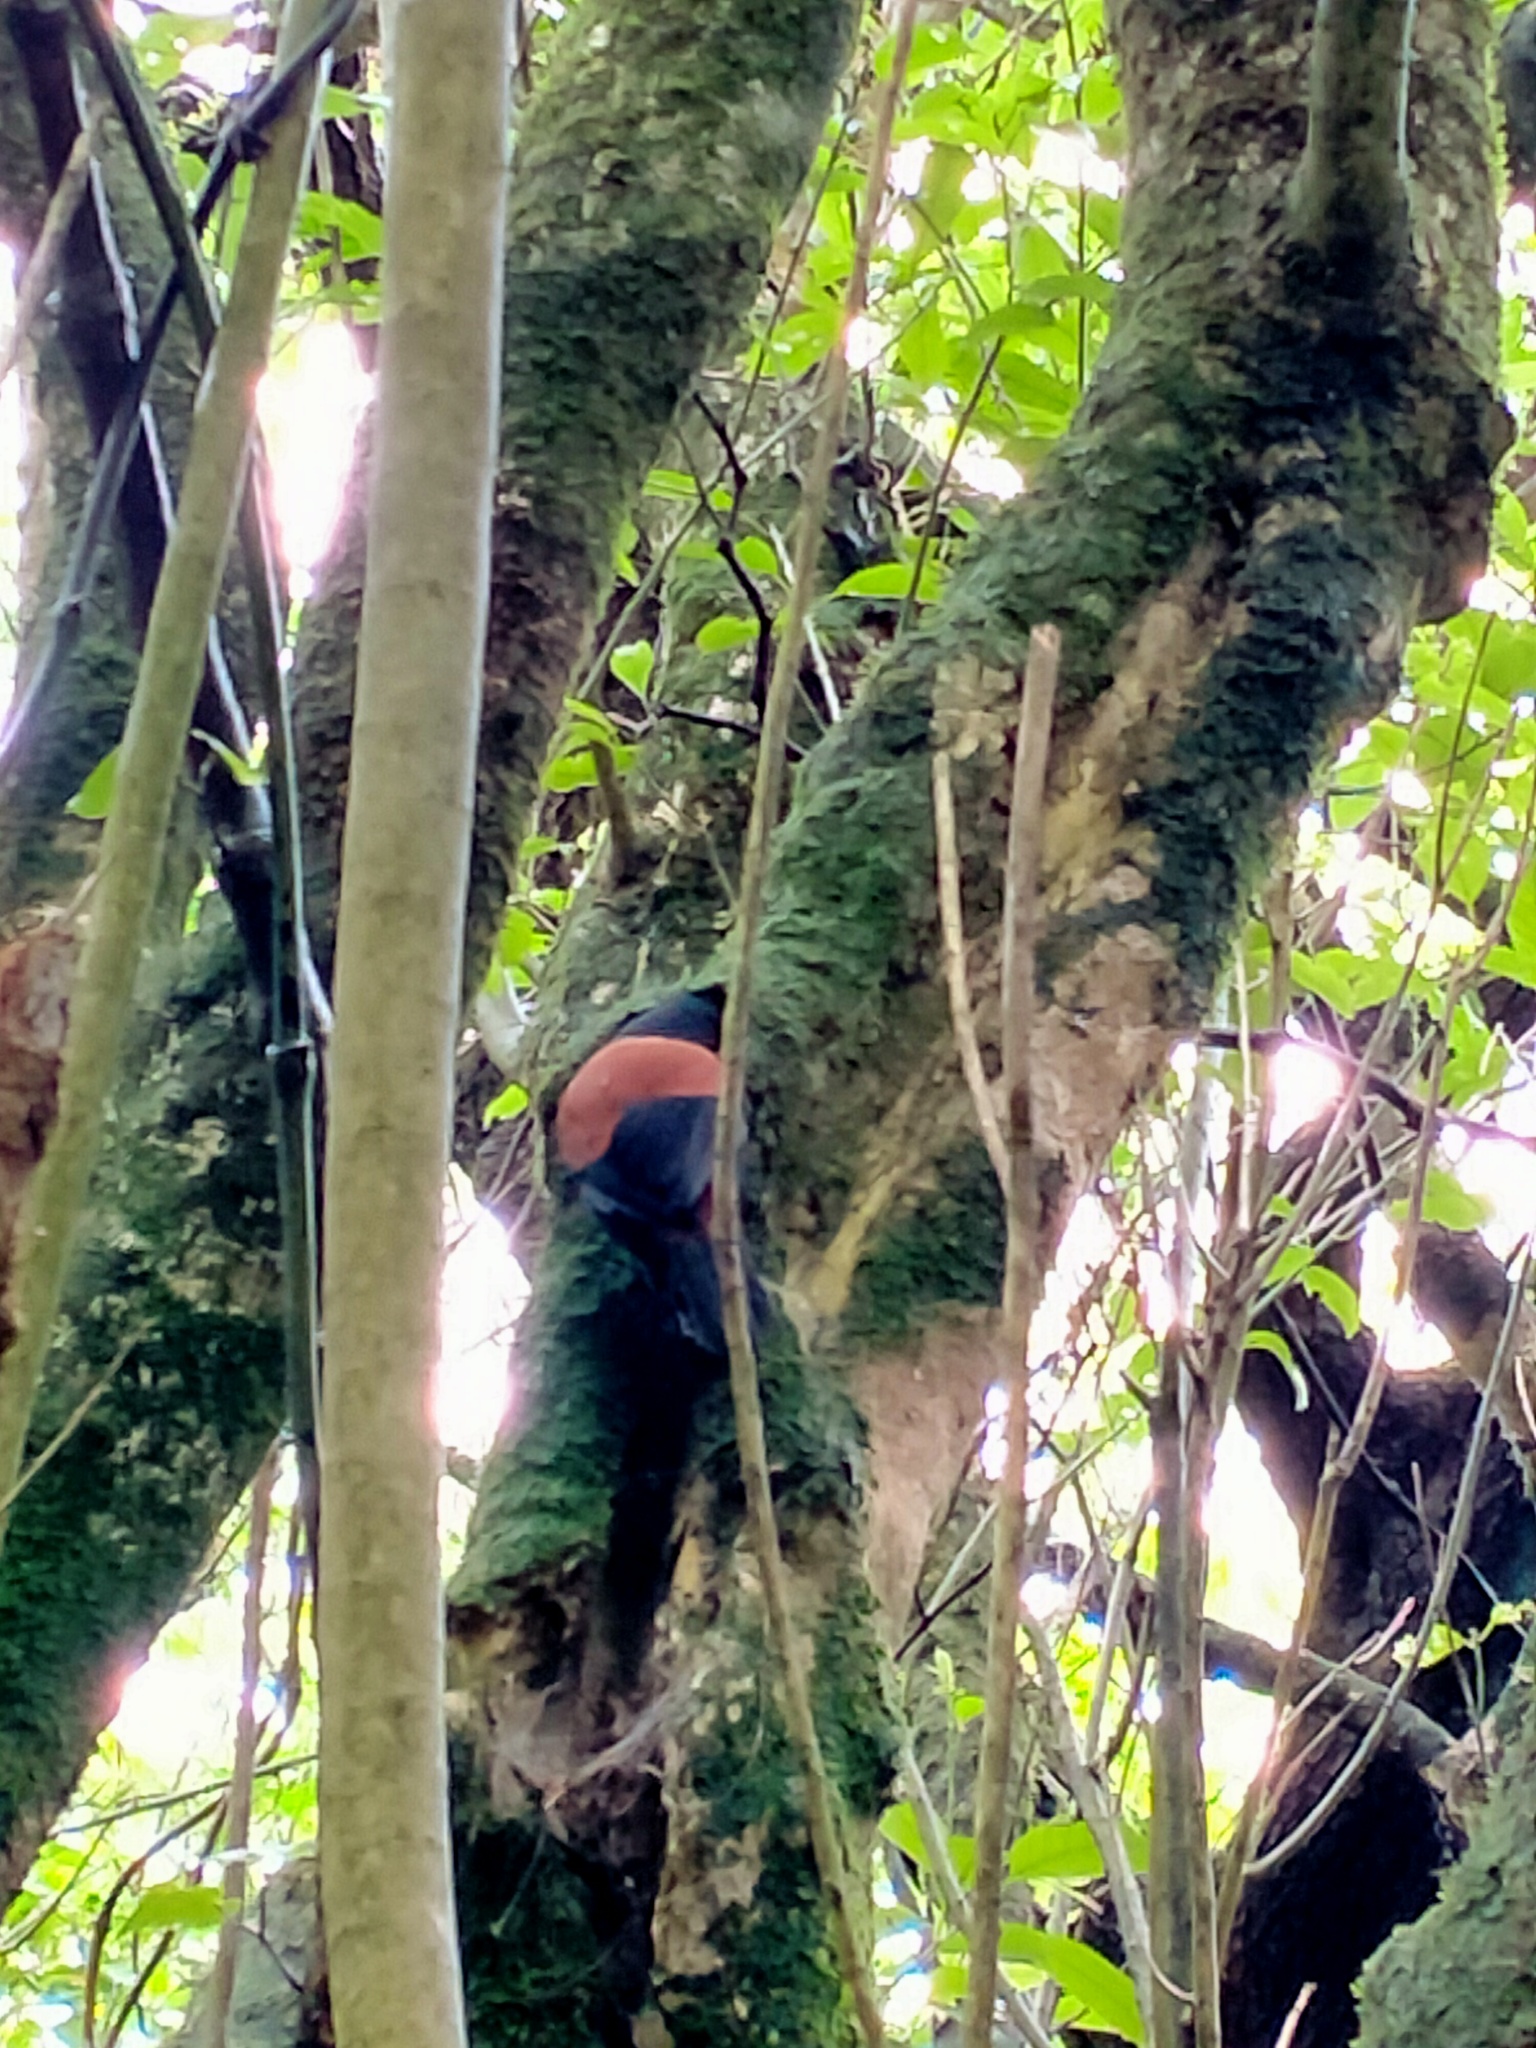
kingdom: Animalia
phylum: Chordata
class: Aves
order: Passeriformes
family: Callaeatidae
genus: Philesturnus
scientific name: Philesturnus carunculatus
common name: South island saddleback
